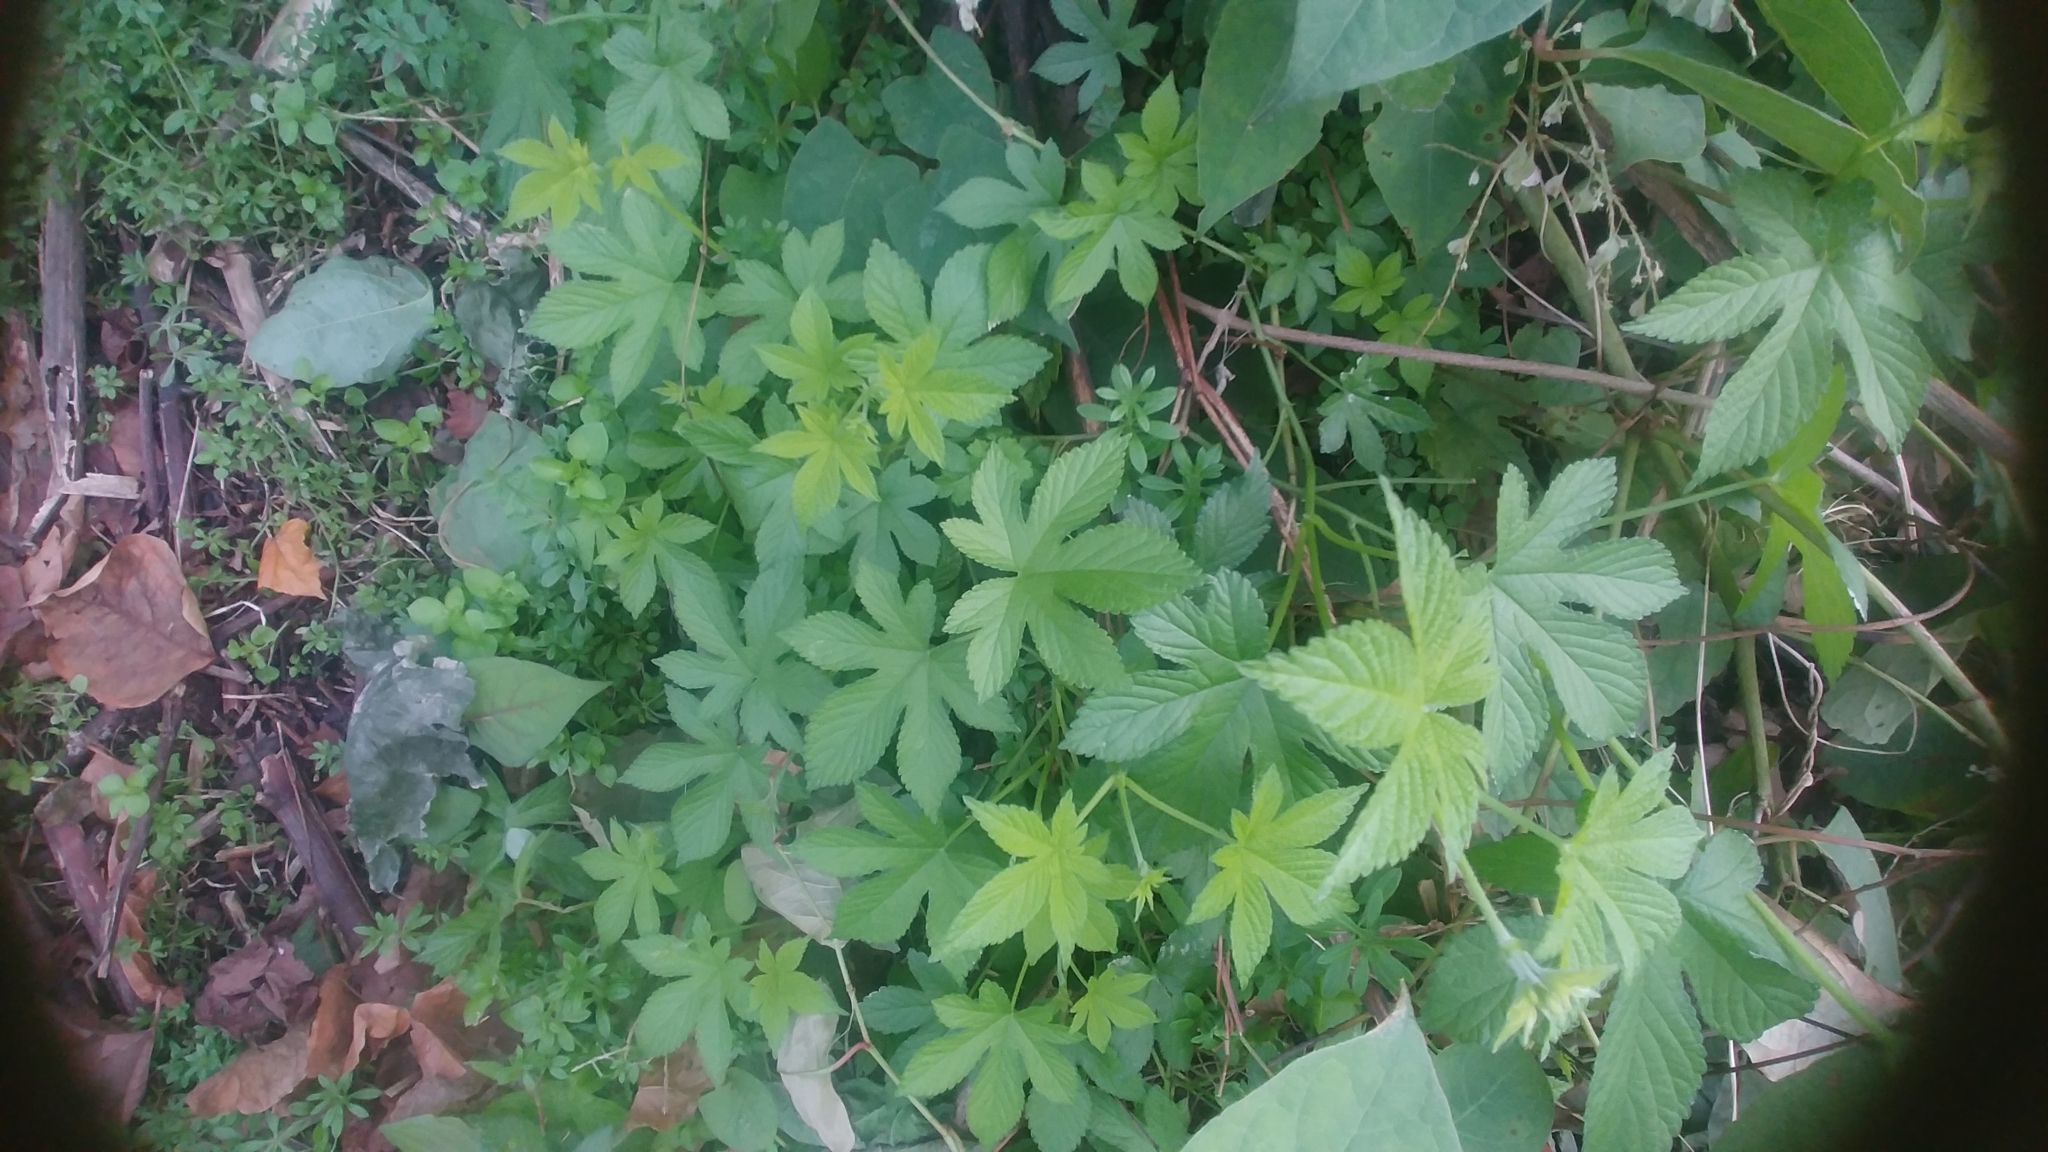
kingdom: Plantae
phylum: Tracheophyta
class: Magnoliopsida
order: Rosales
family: Cannabaceae
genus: Humulus
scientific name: Humulus scandens
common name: Japanese hop
